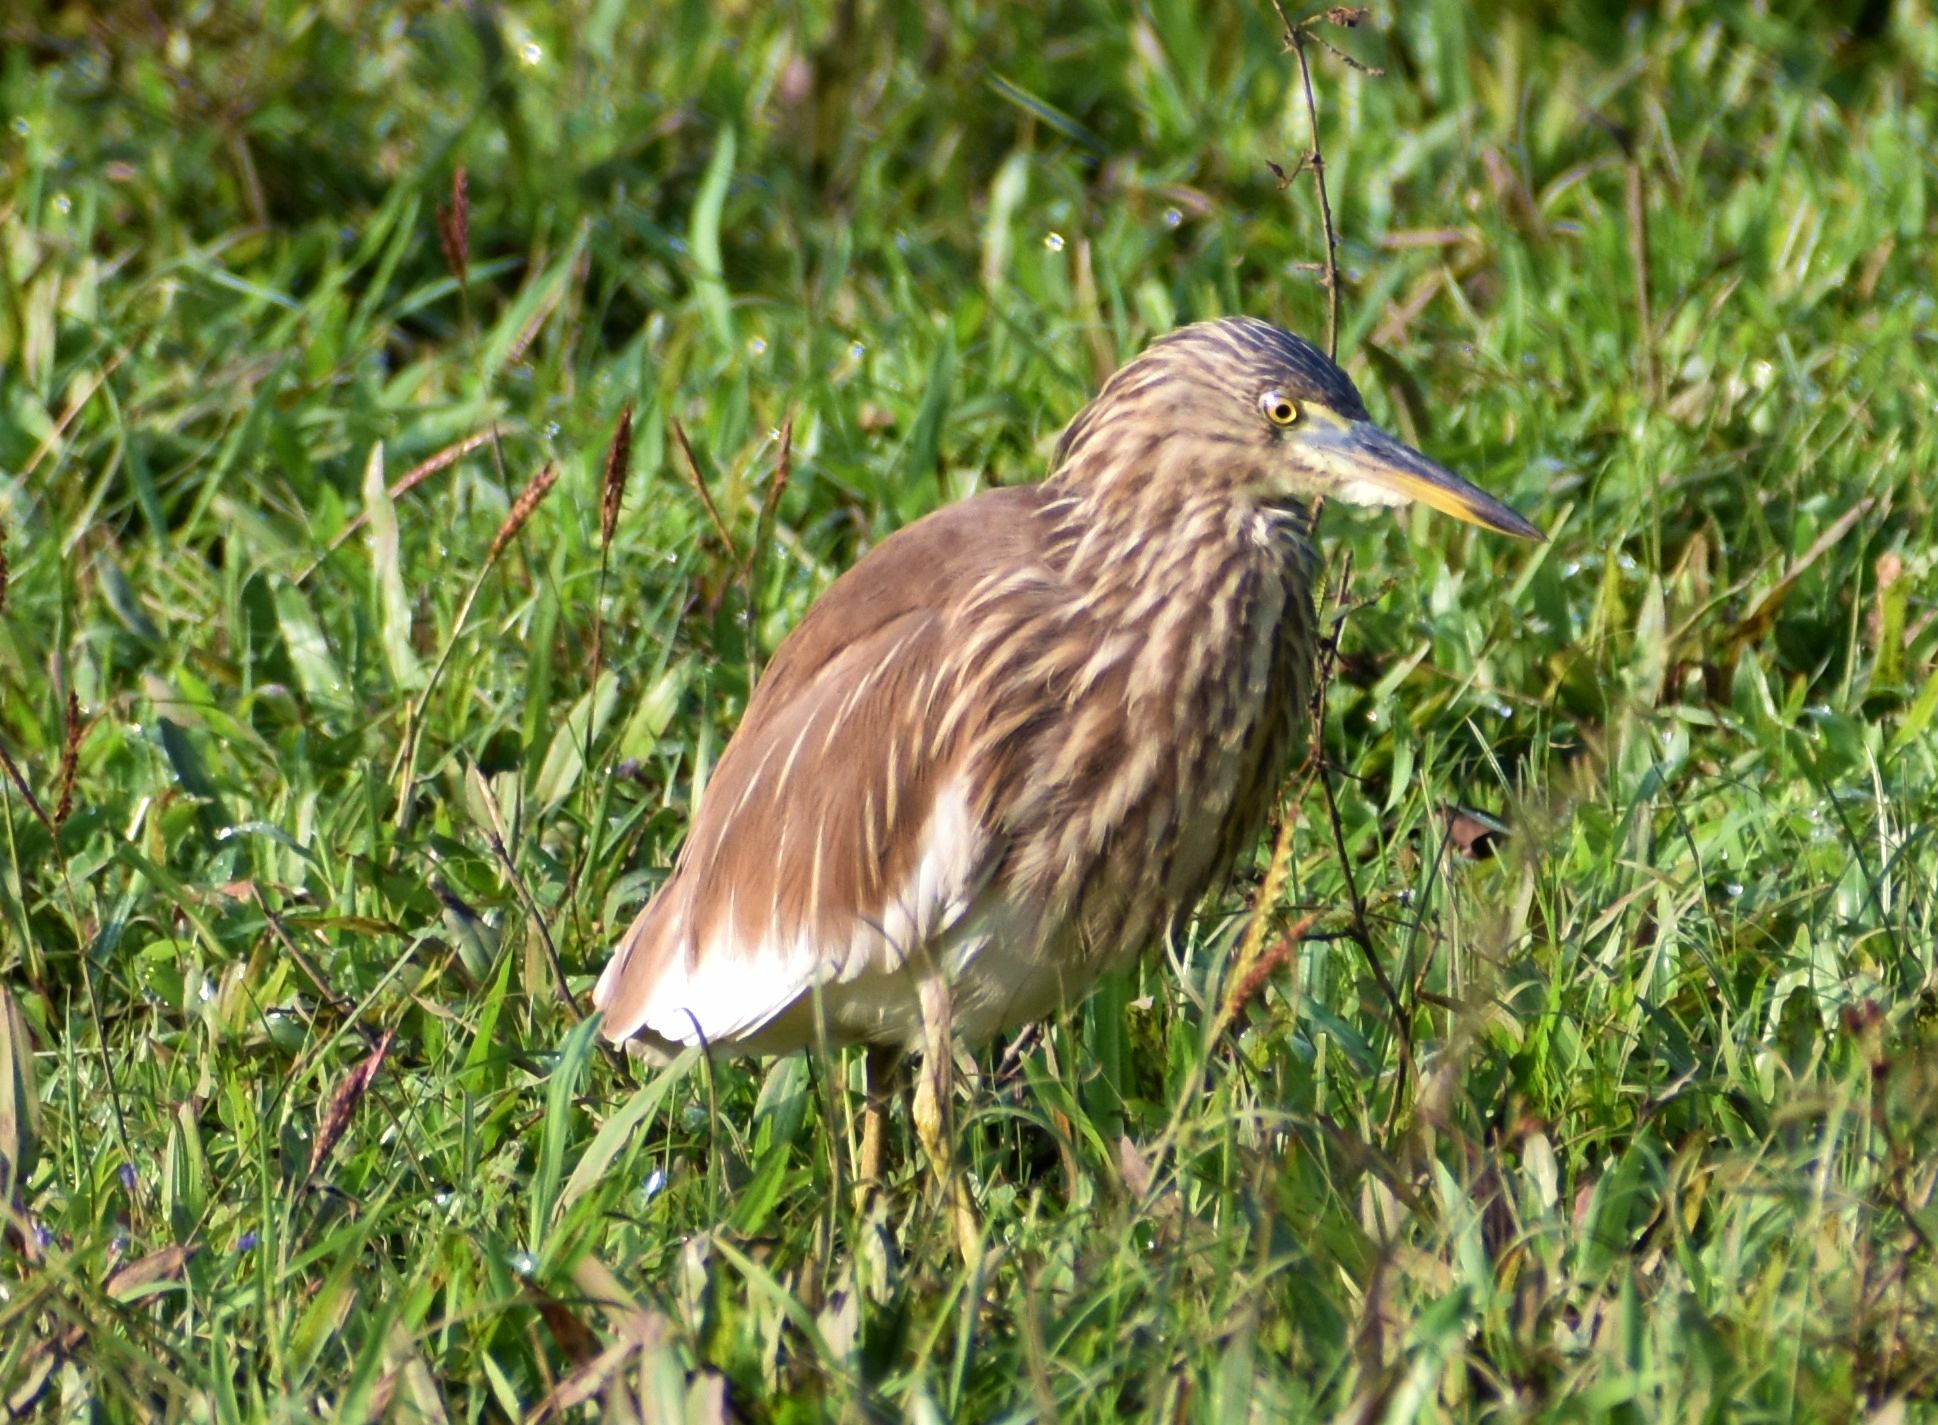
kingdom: Animalia
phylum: Chordata
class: Aves
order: Pelecaniformes
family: Ardeidae
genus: Ardeola
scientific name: Ardeola grayii
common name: Indian pond heron
